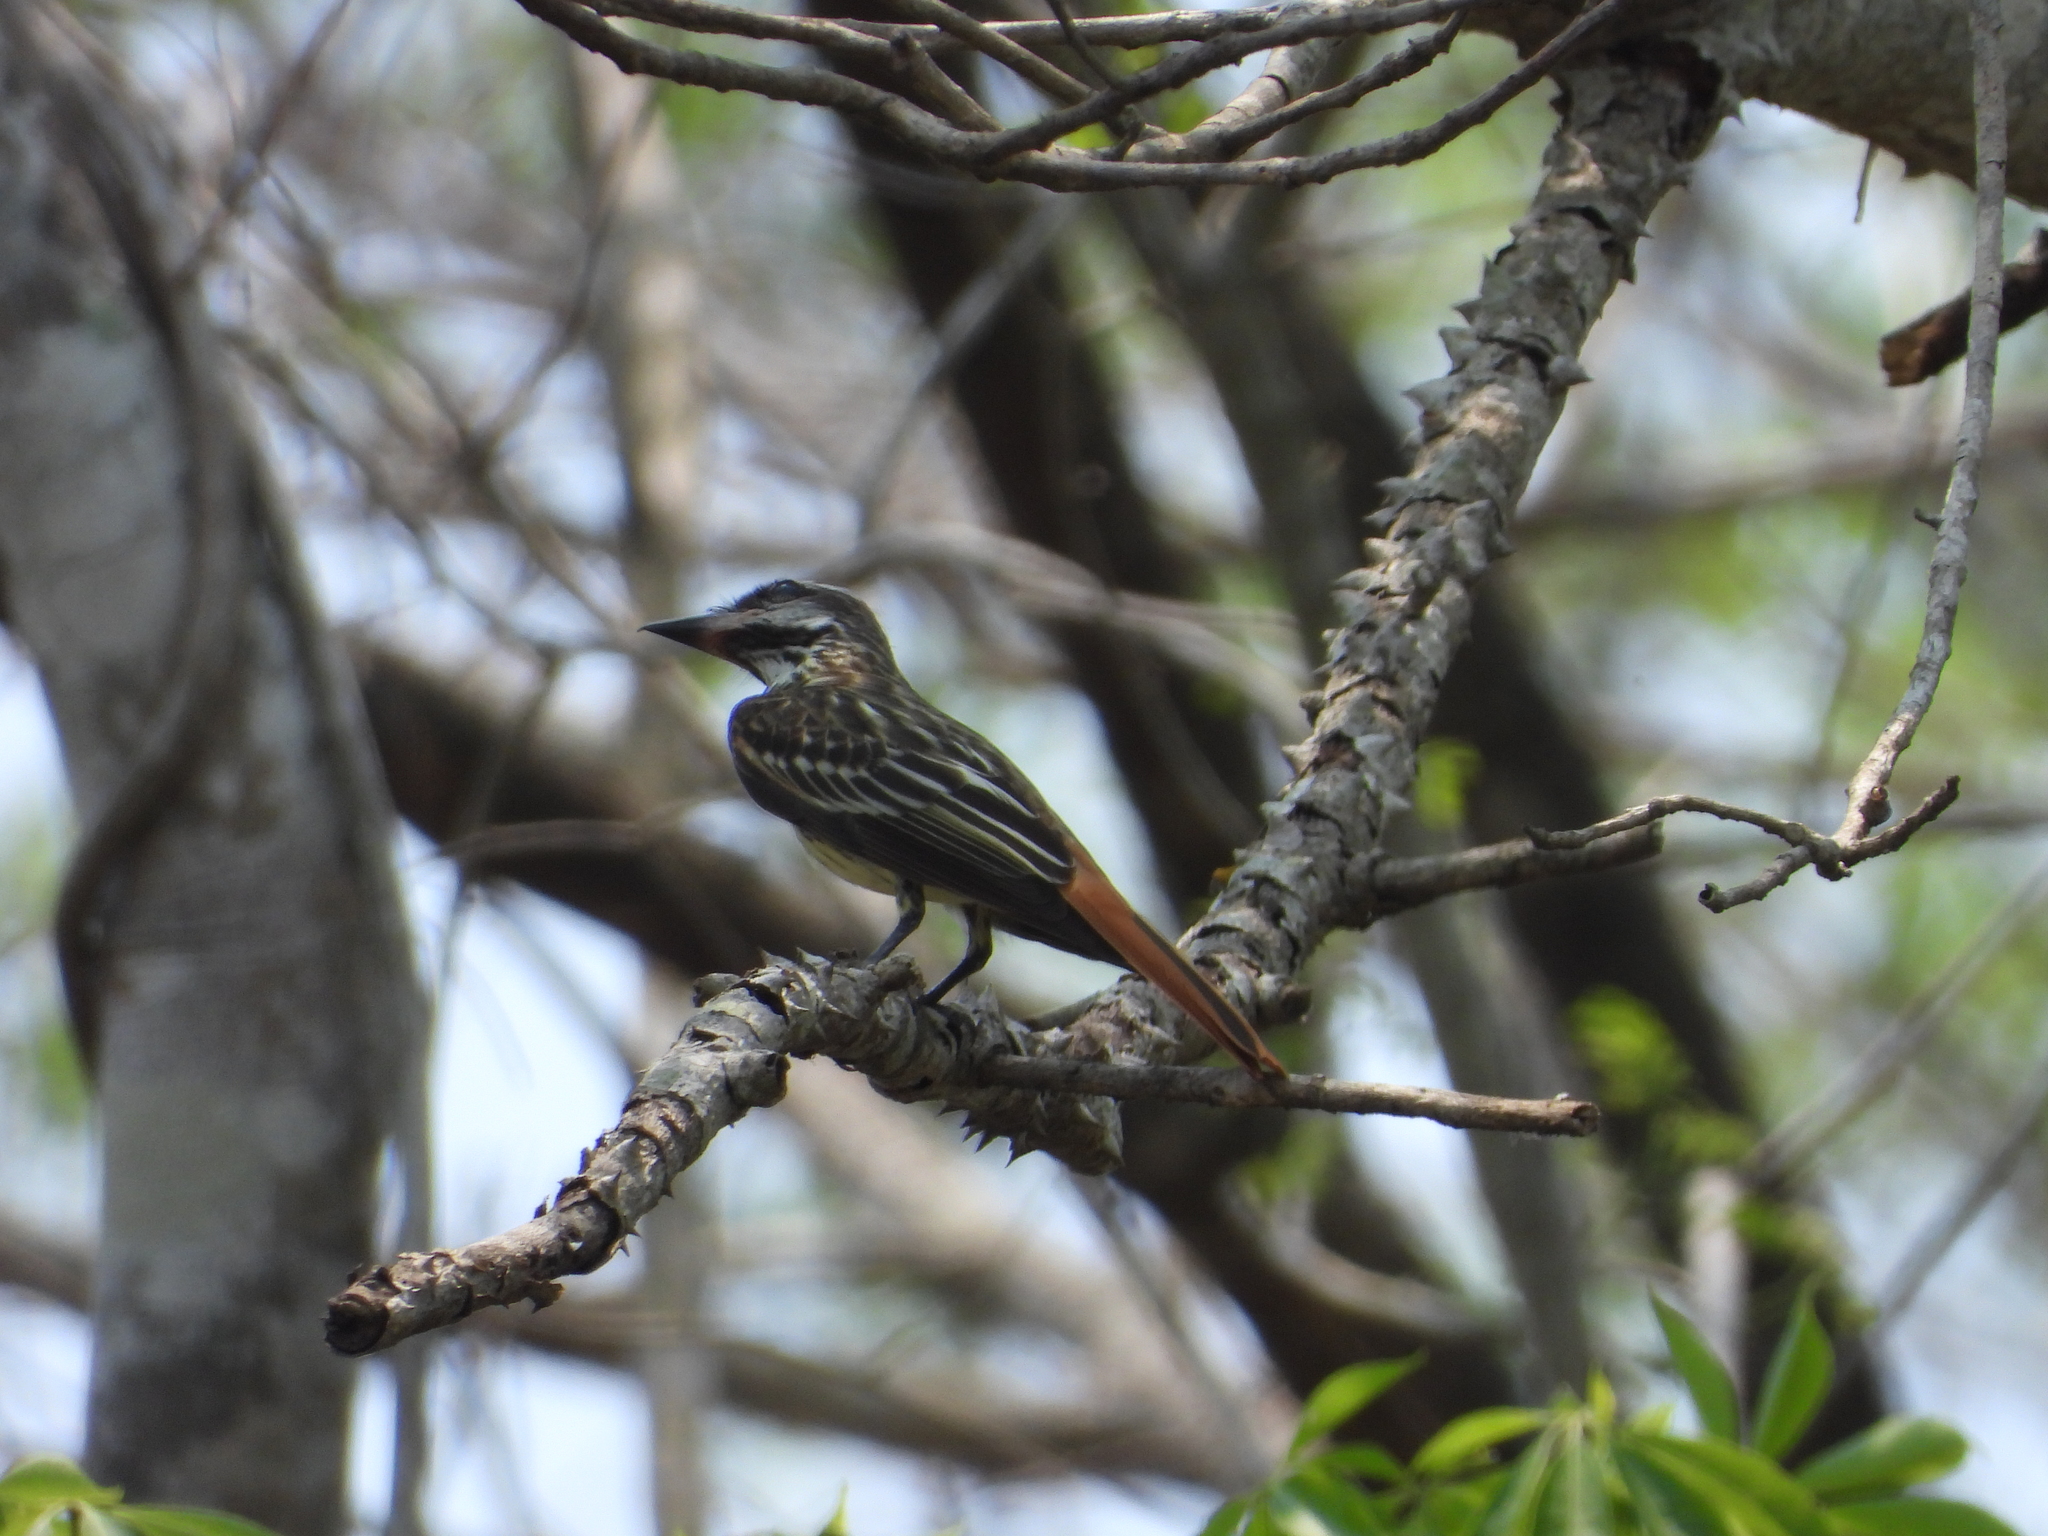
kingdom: Animalia
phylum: Chordata
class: Aves
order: Passeriformes
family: Tyrannidae
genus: Myiodynastes
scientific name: Myiodynastes luteiventris
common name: Sulphur-bellied flycatcher
